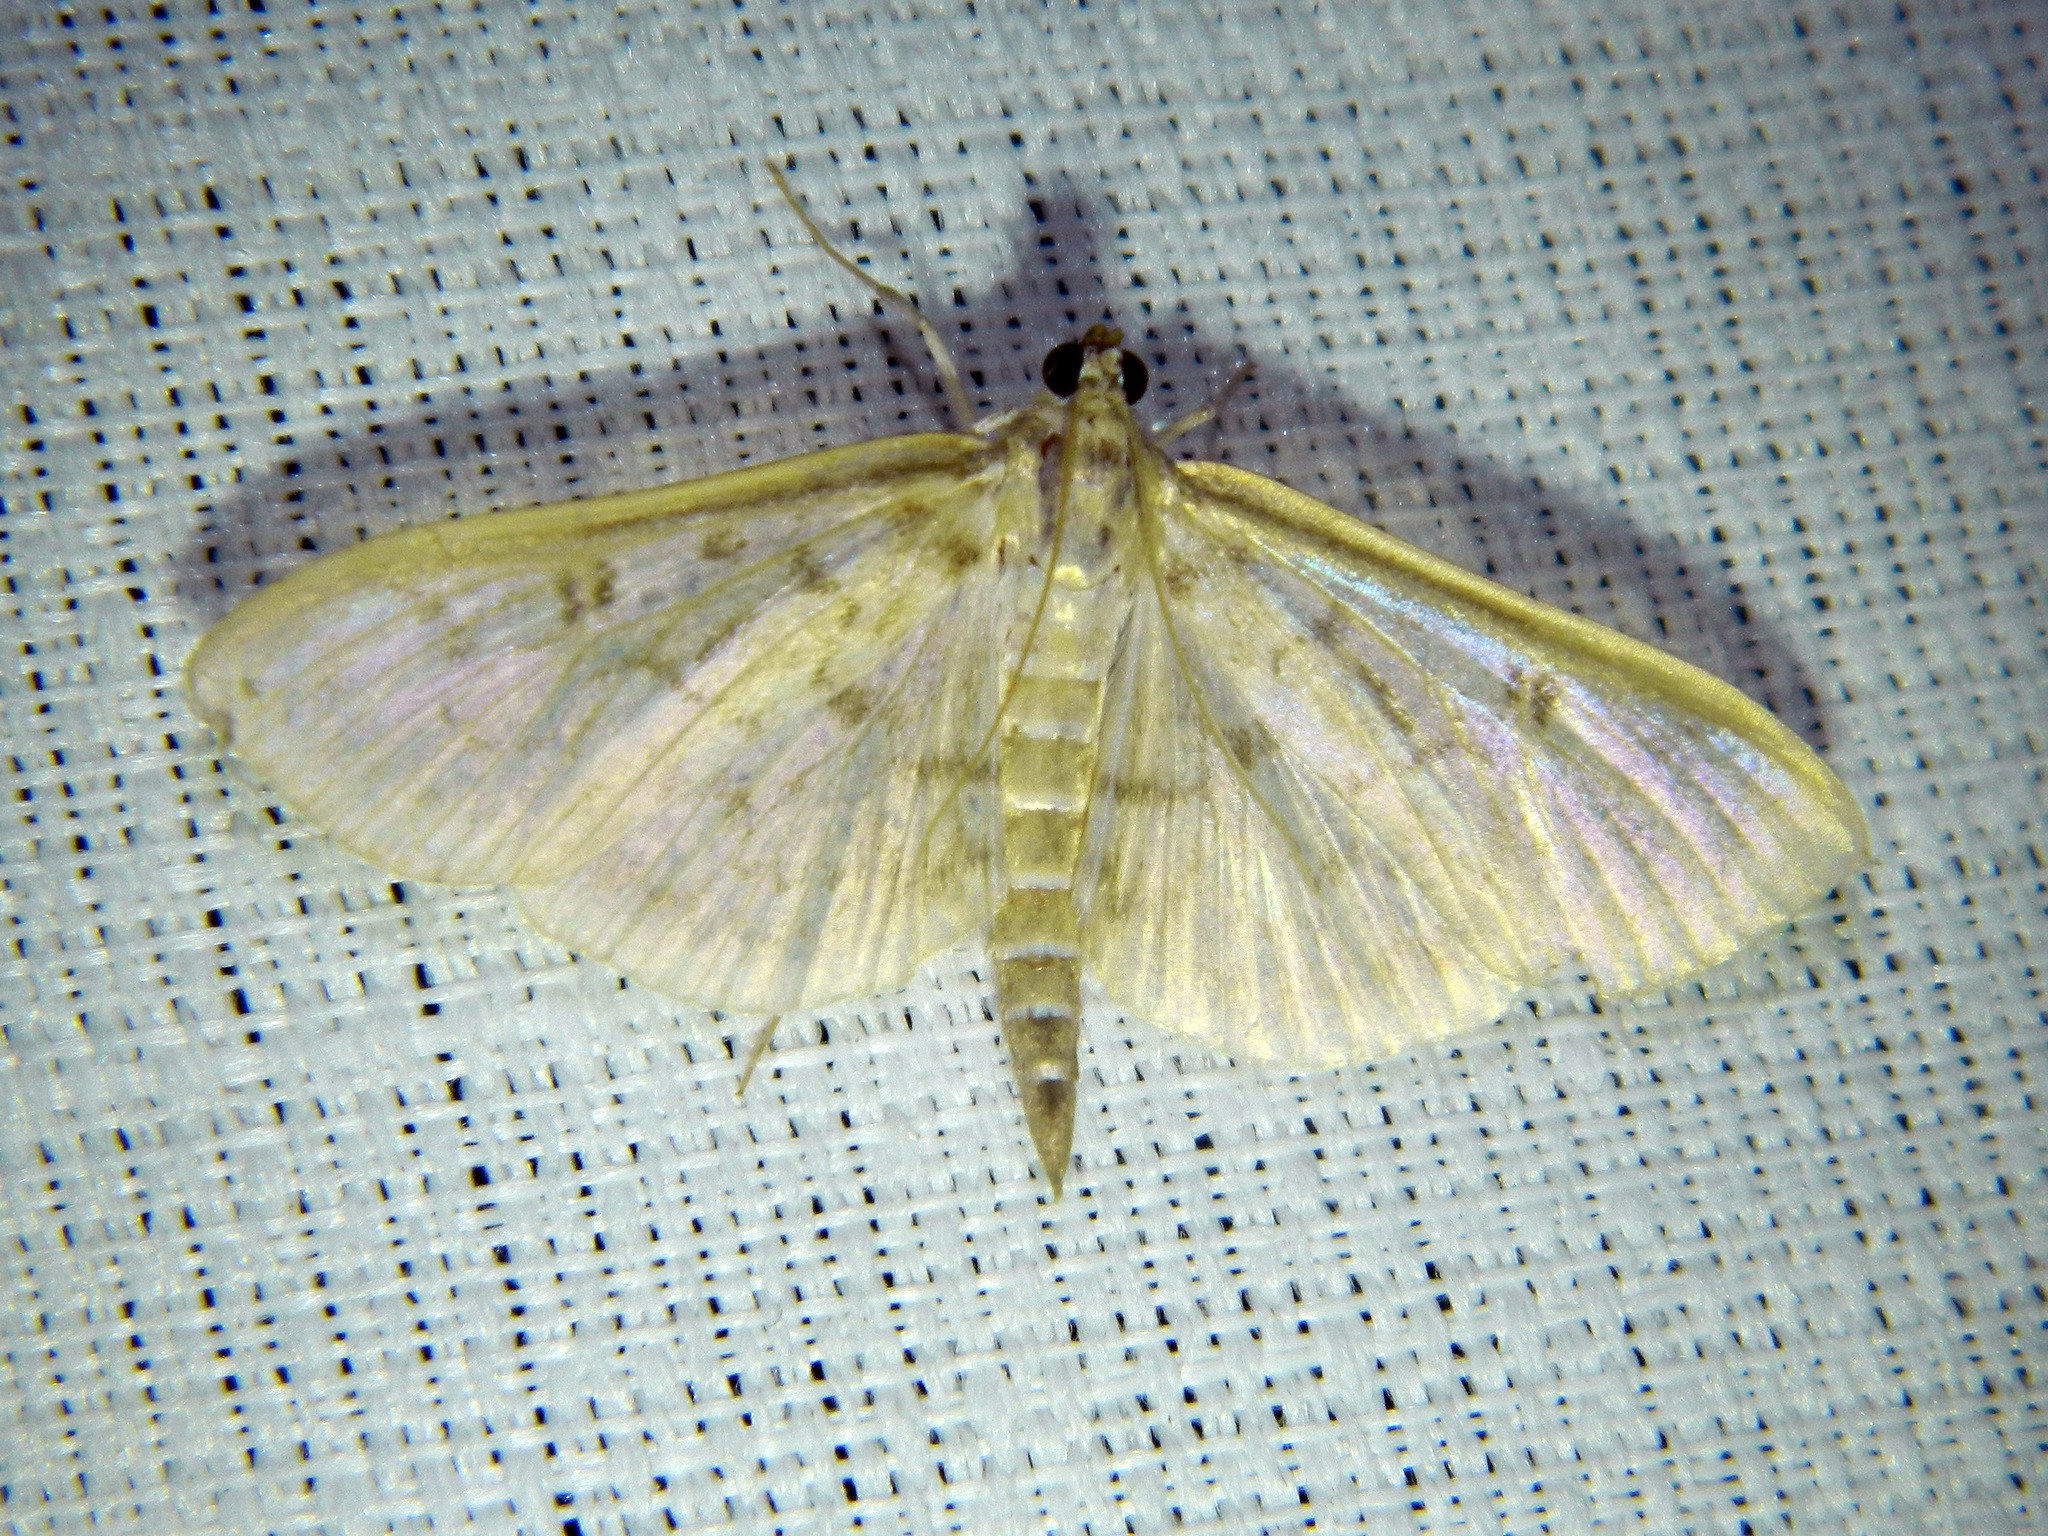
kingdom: Animalia
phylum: Arthropoda
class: Insecta
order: Lepidoptera
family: Crambidae
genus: Herpetogramma
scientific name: Herpetogramma aquilonalis
